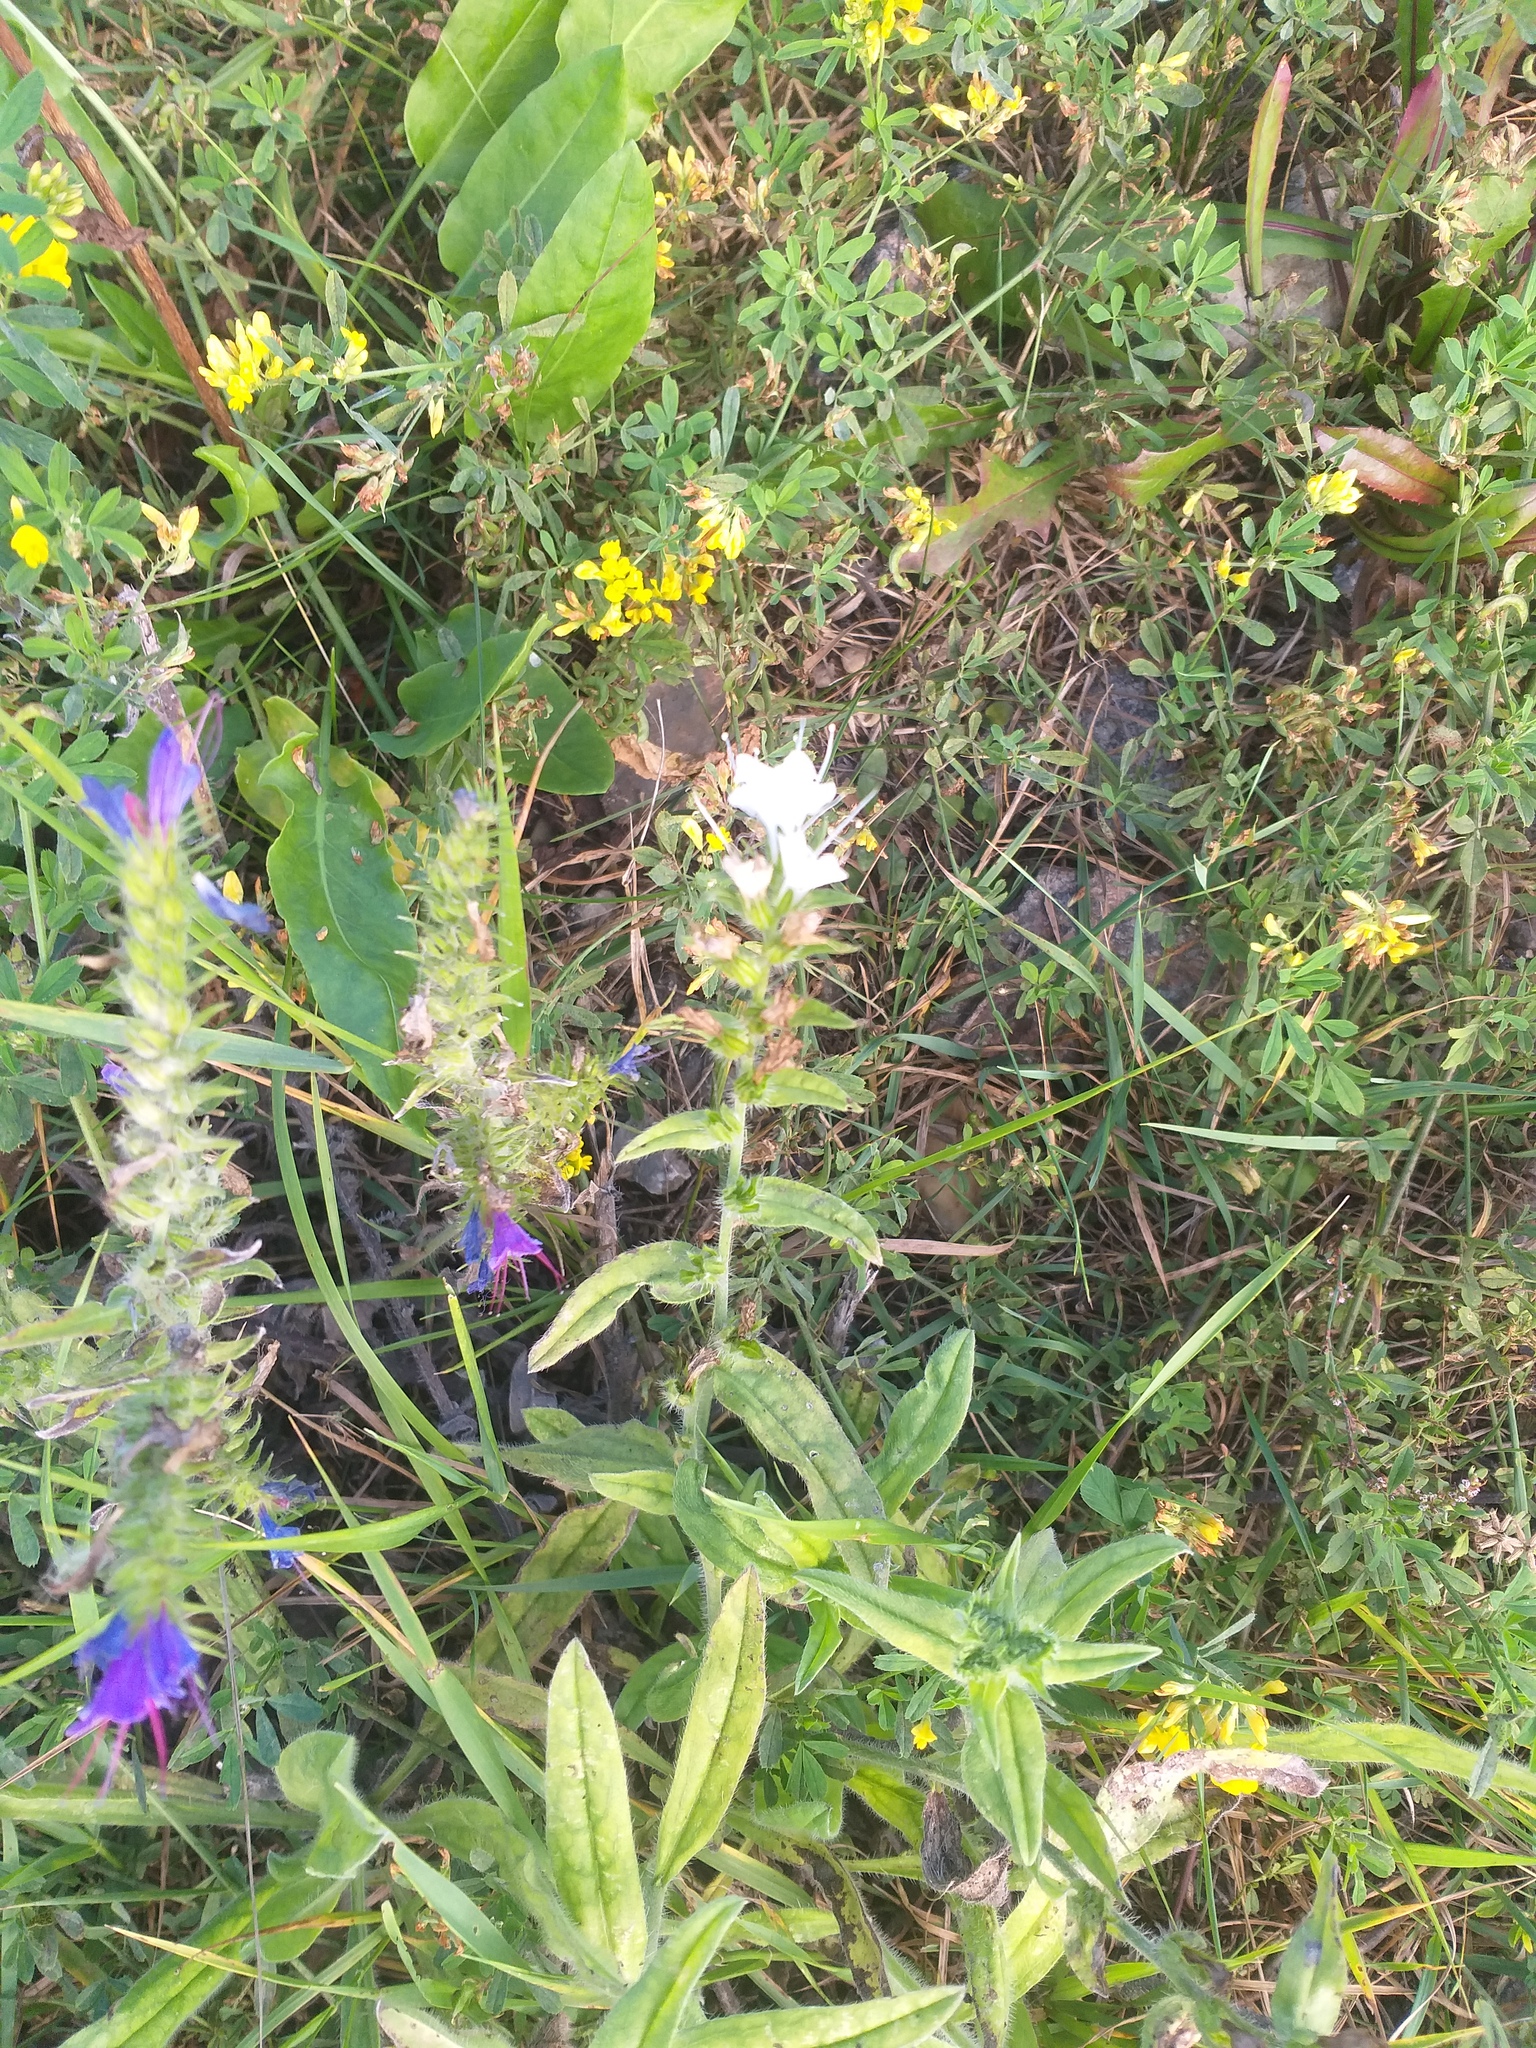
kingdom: Plantae
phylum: Tracheophyta
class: Magnoliopsida
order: Boraginales
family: Boraginaceae
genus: Echium
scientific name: Echium vulgare
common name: Common viper's bugloss
